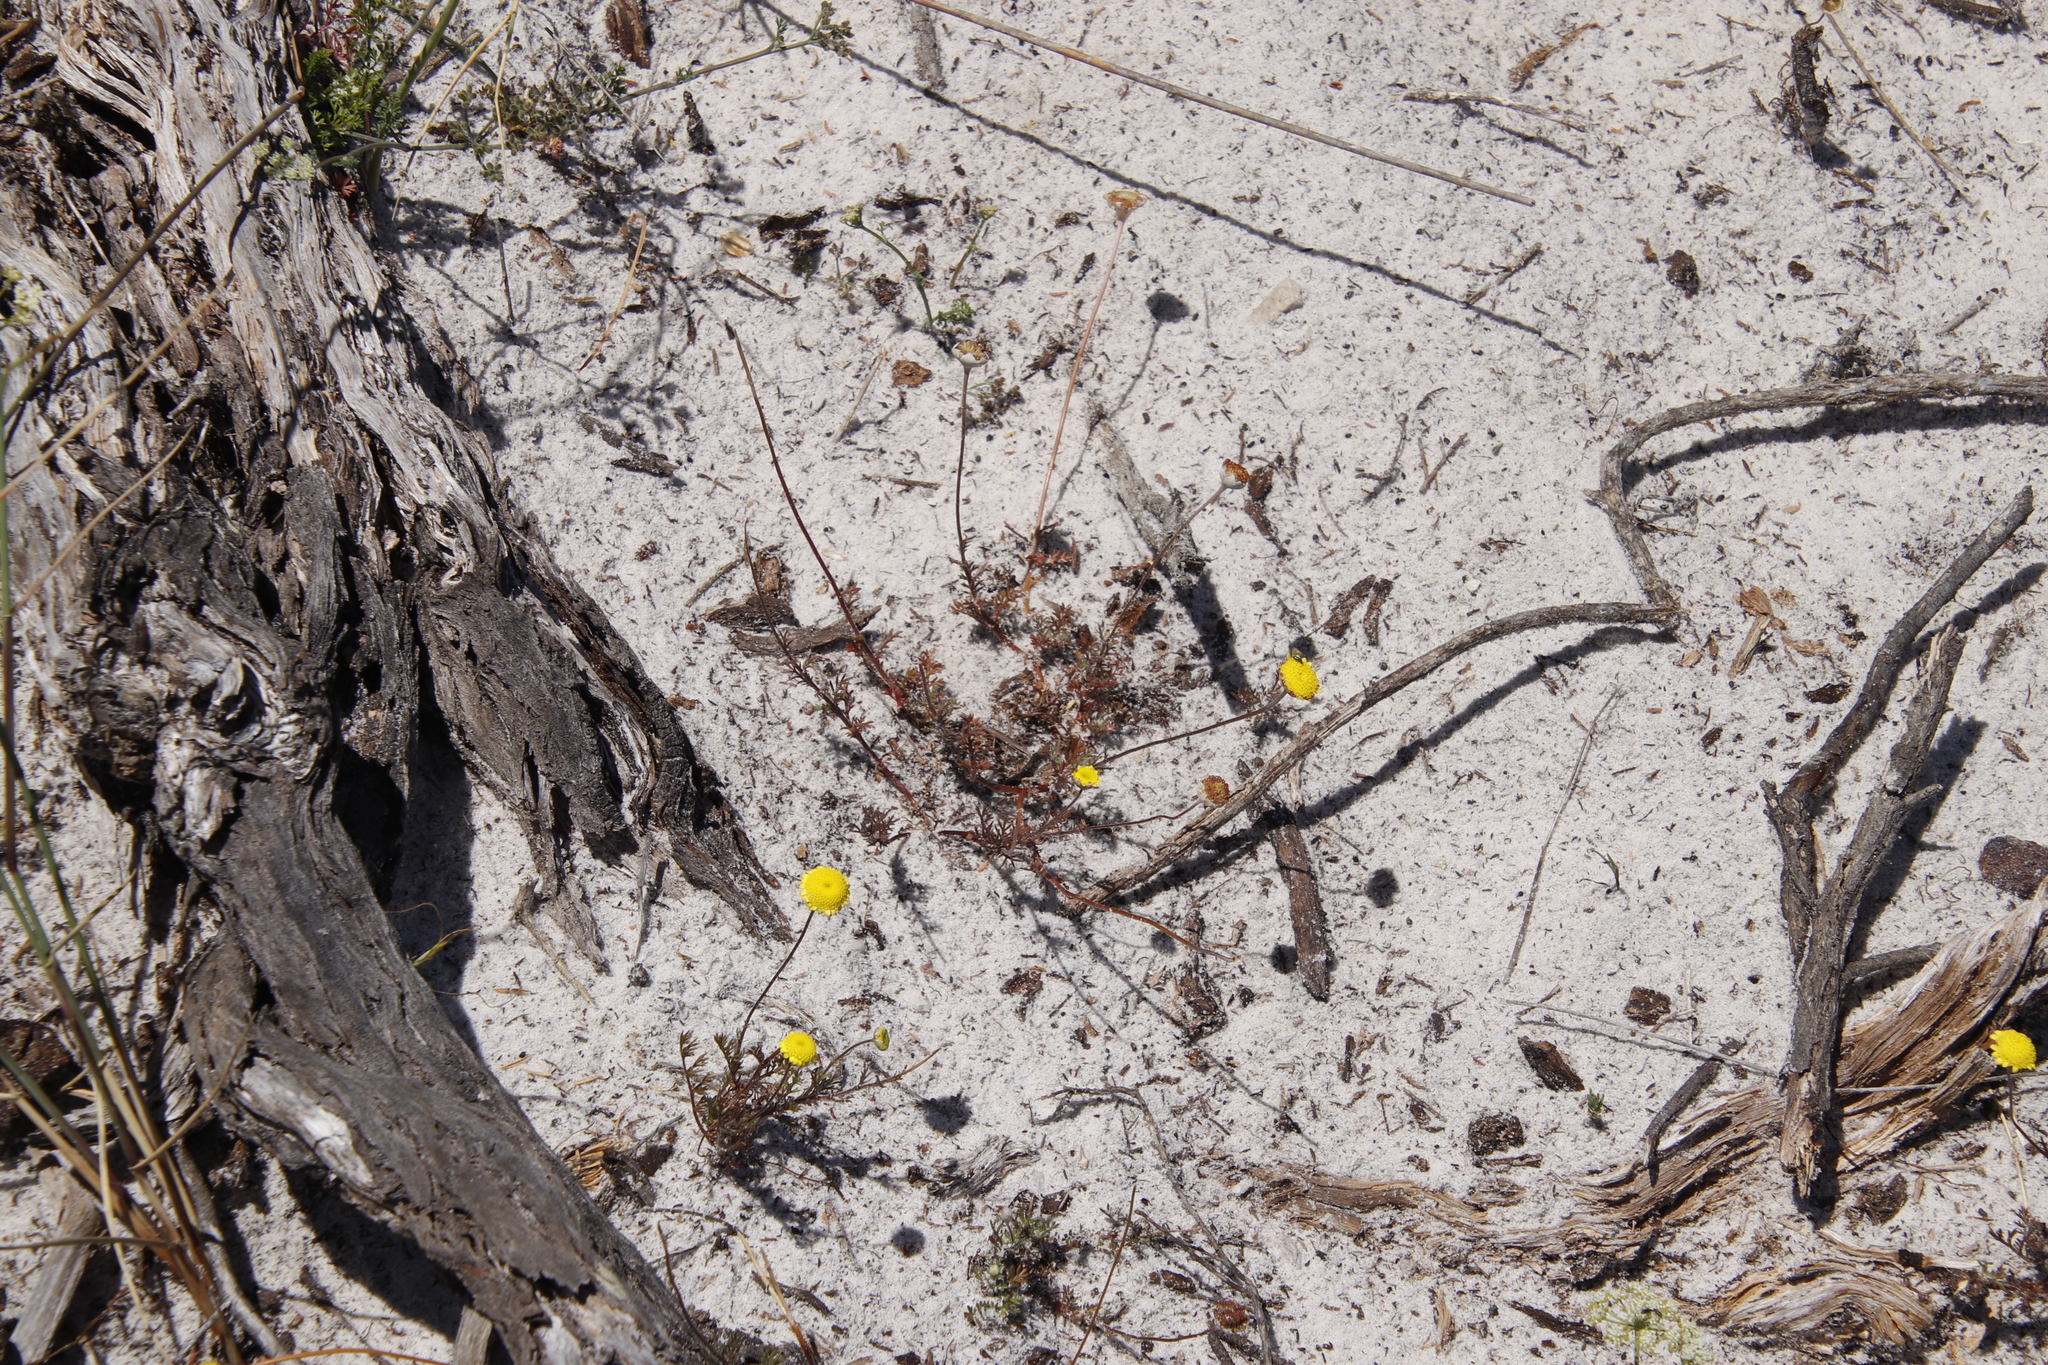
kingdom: Plantae
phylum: Tracheophyta
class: Magnoliopsida
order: Asterales
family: Asteraceae
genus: Cotula
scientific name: Cotula pruinosa
